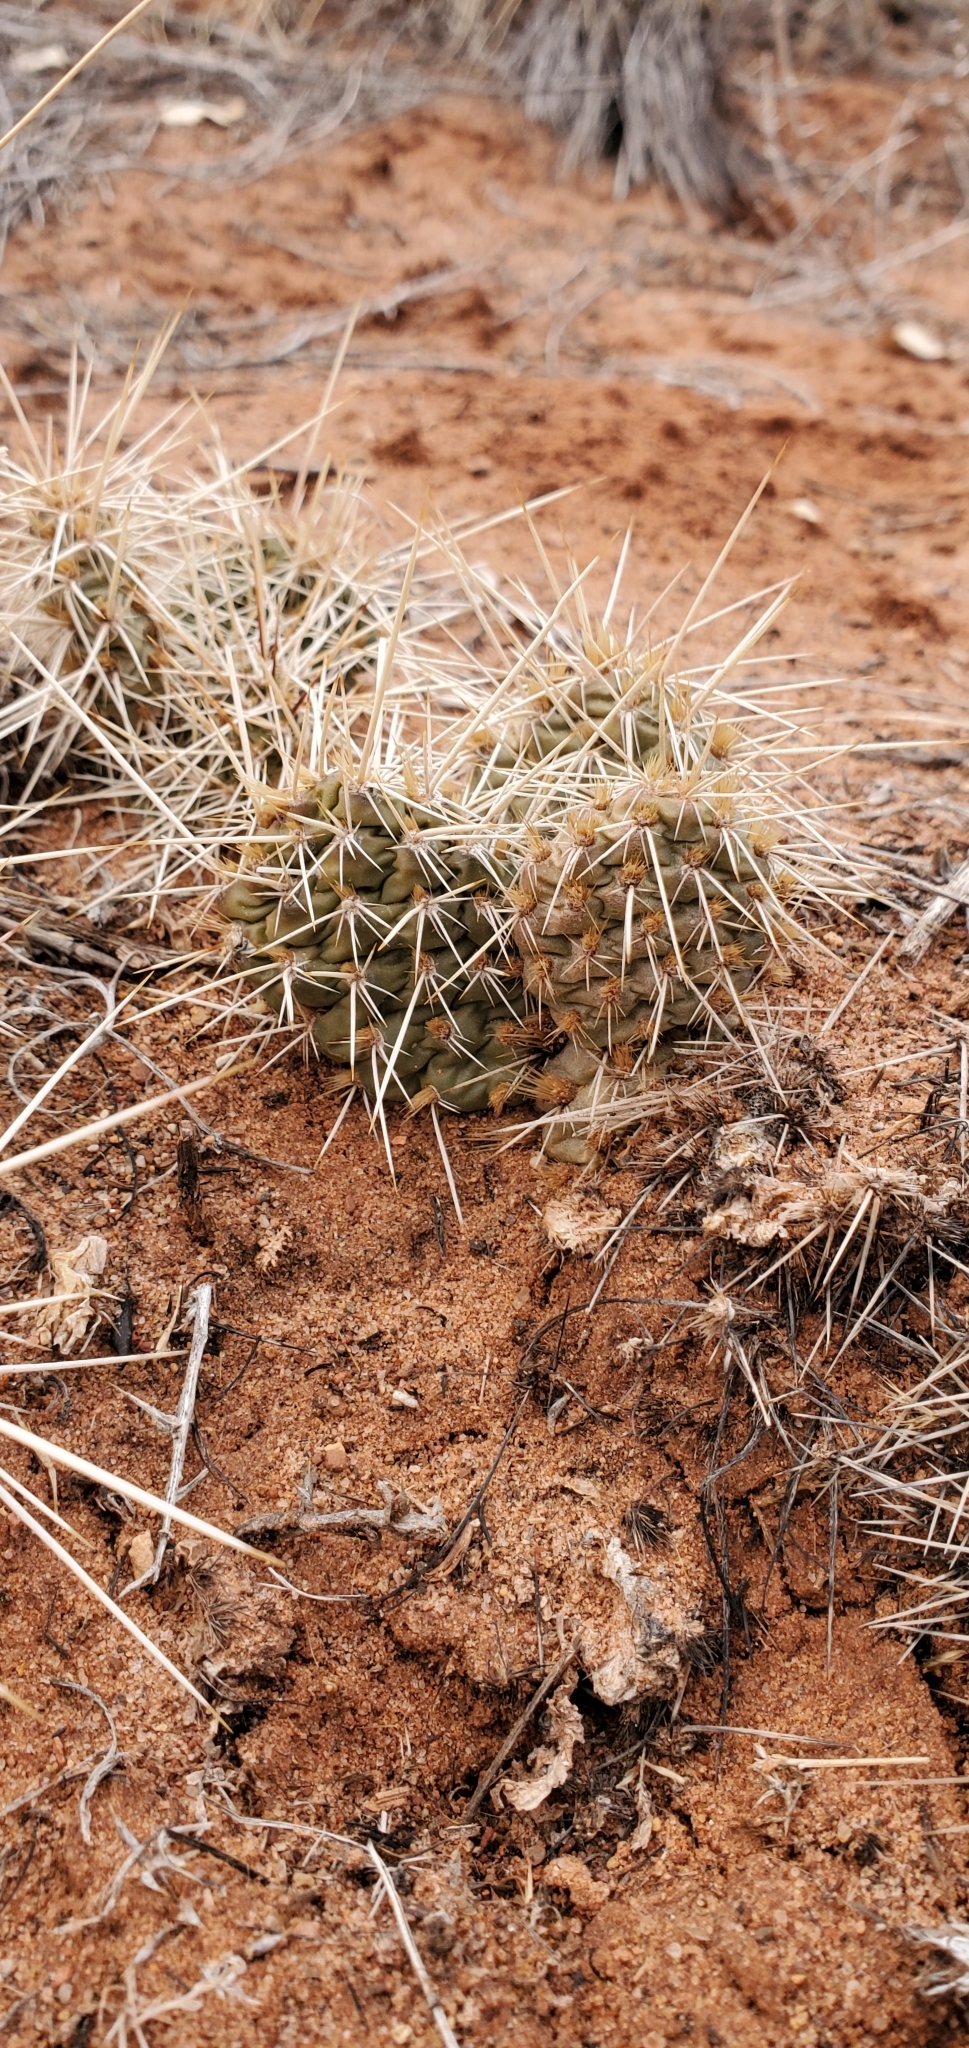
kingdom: Plantae
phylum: Tracheophyta
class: Magnoliopsida
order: Caryophyllales
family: Cactaceae
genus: Opuntia
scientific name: Opuntia polyacantha
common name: Plains prickly-pear
